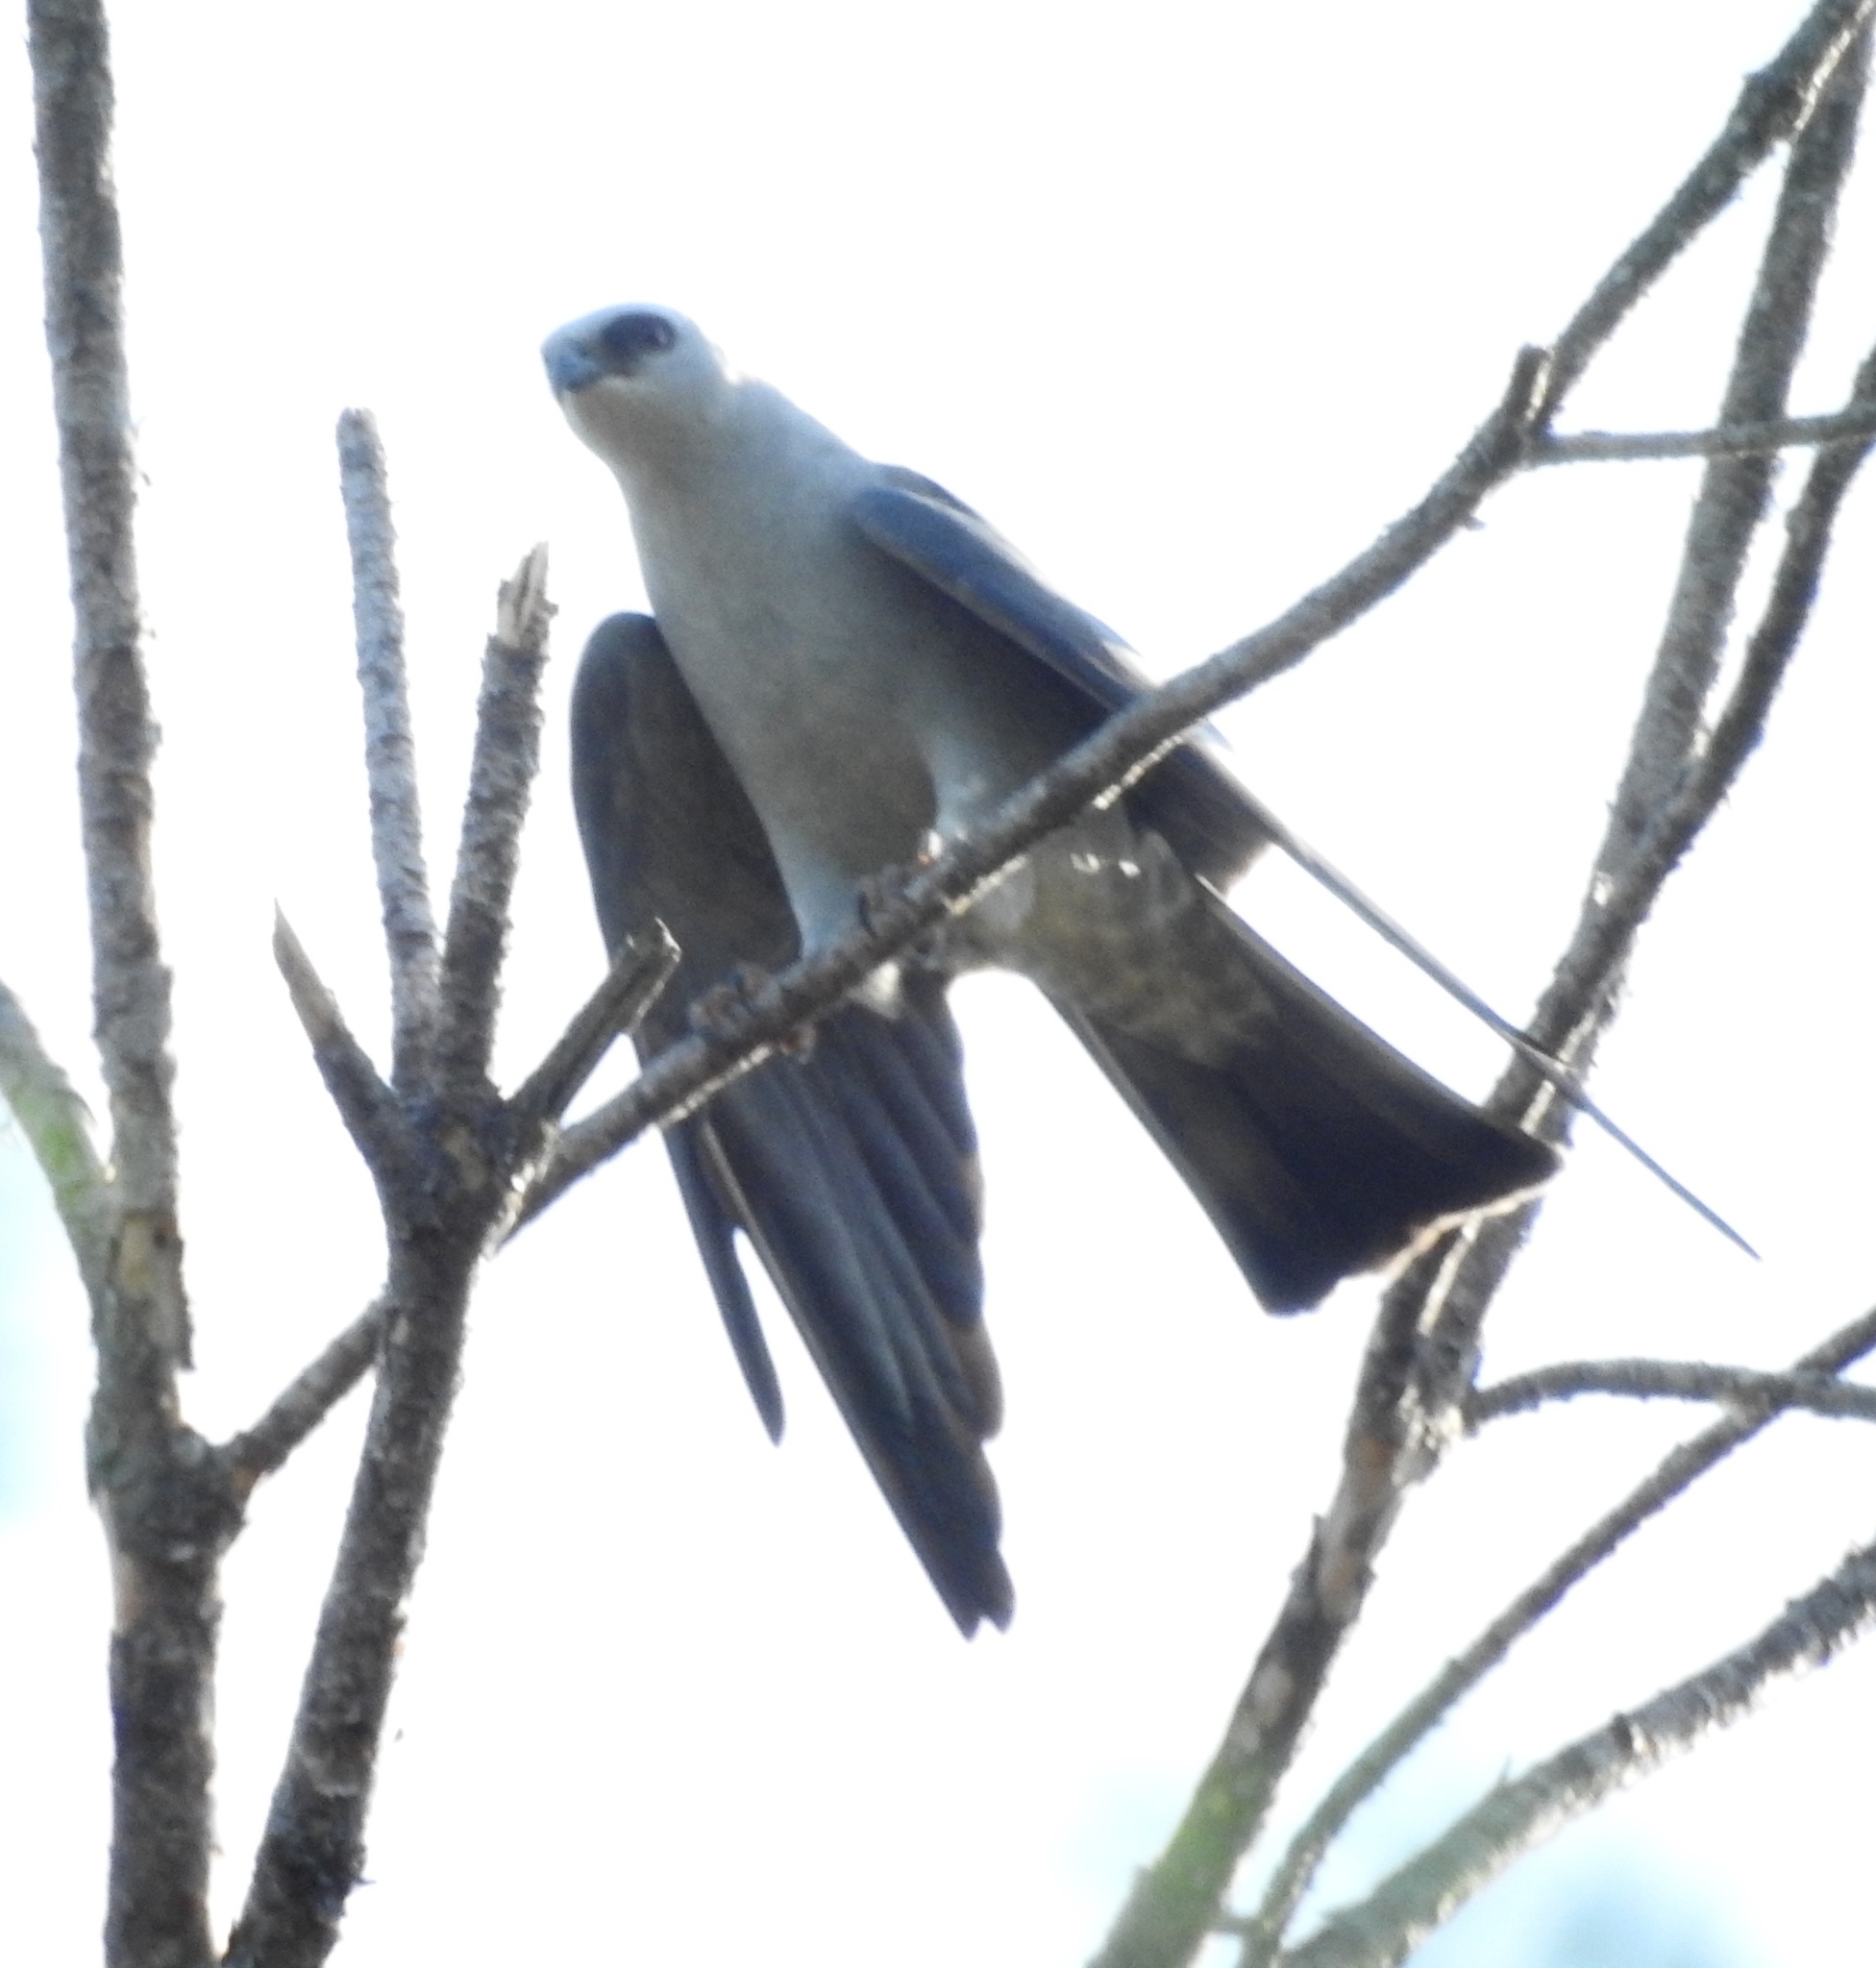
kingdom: Animalia
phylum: Chordata
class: Aves
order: Accipitriformes
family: Accipitridae
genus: Ictinia
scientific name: Ictinia mississippiensis
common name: Mississippi kite
